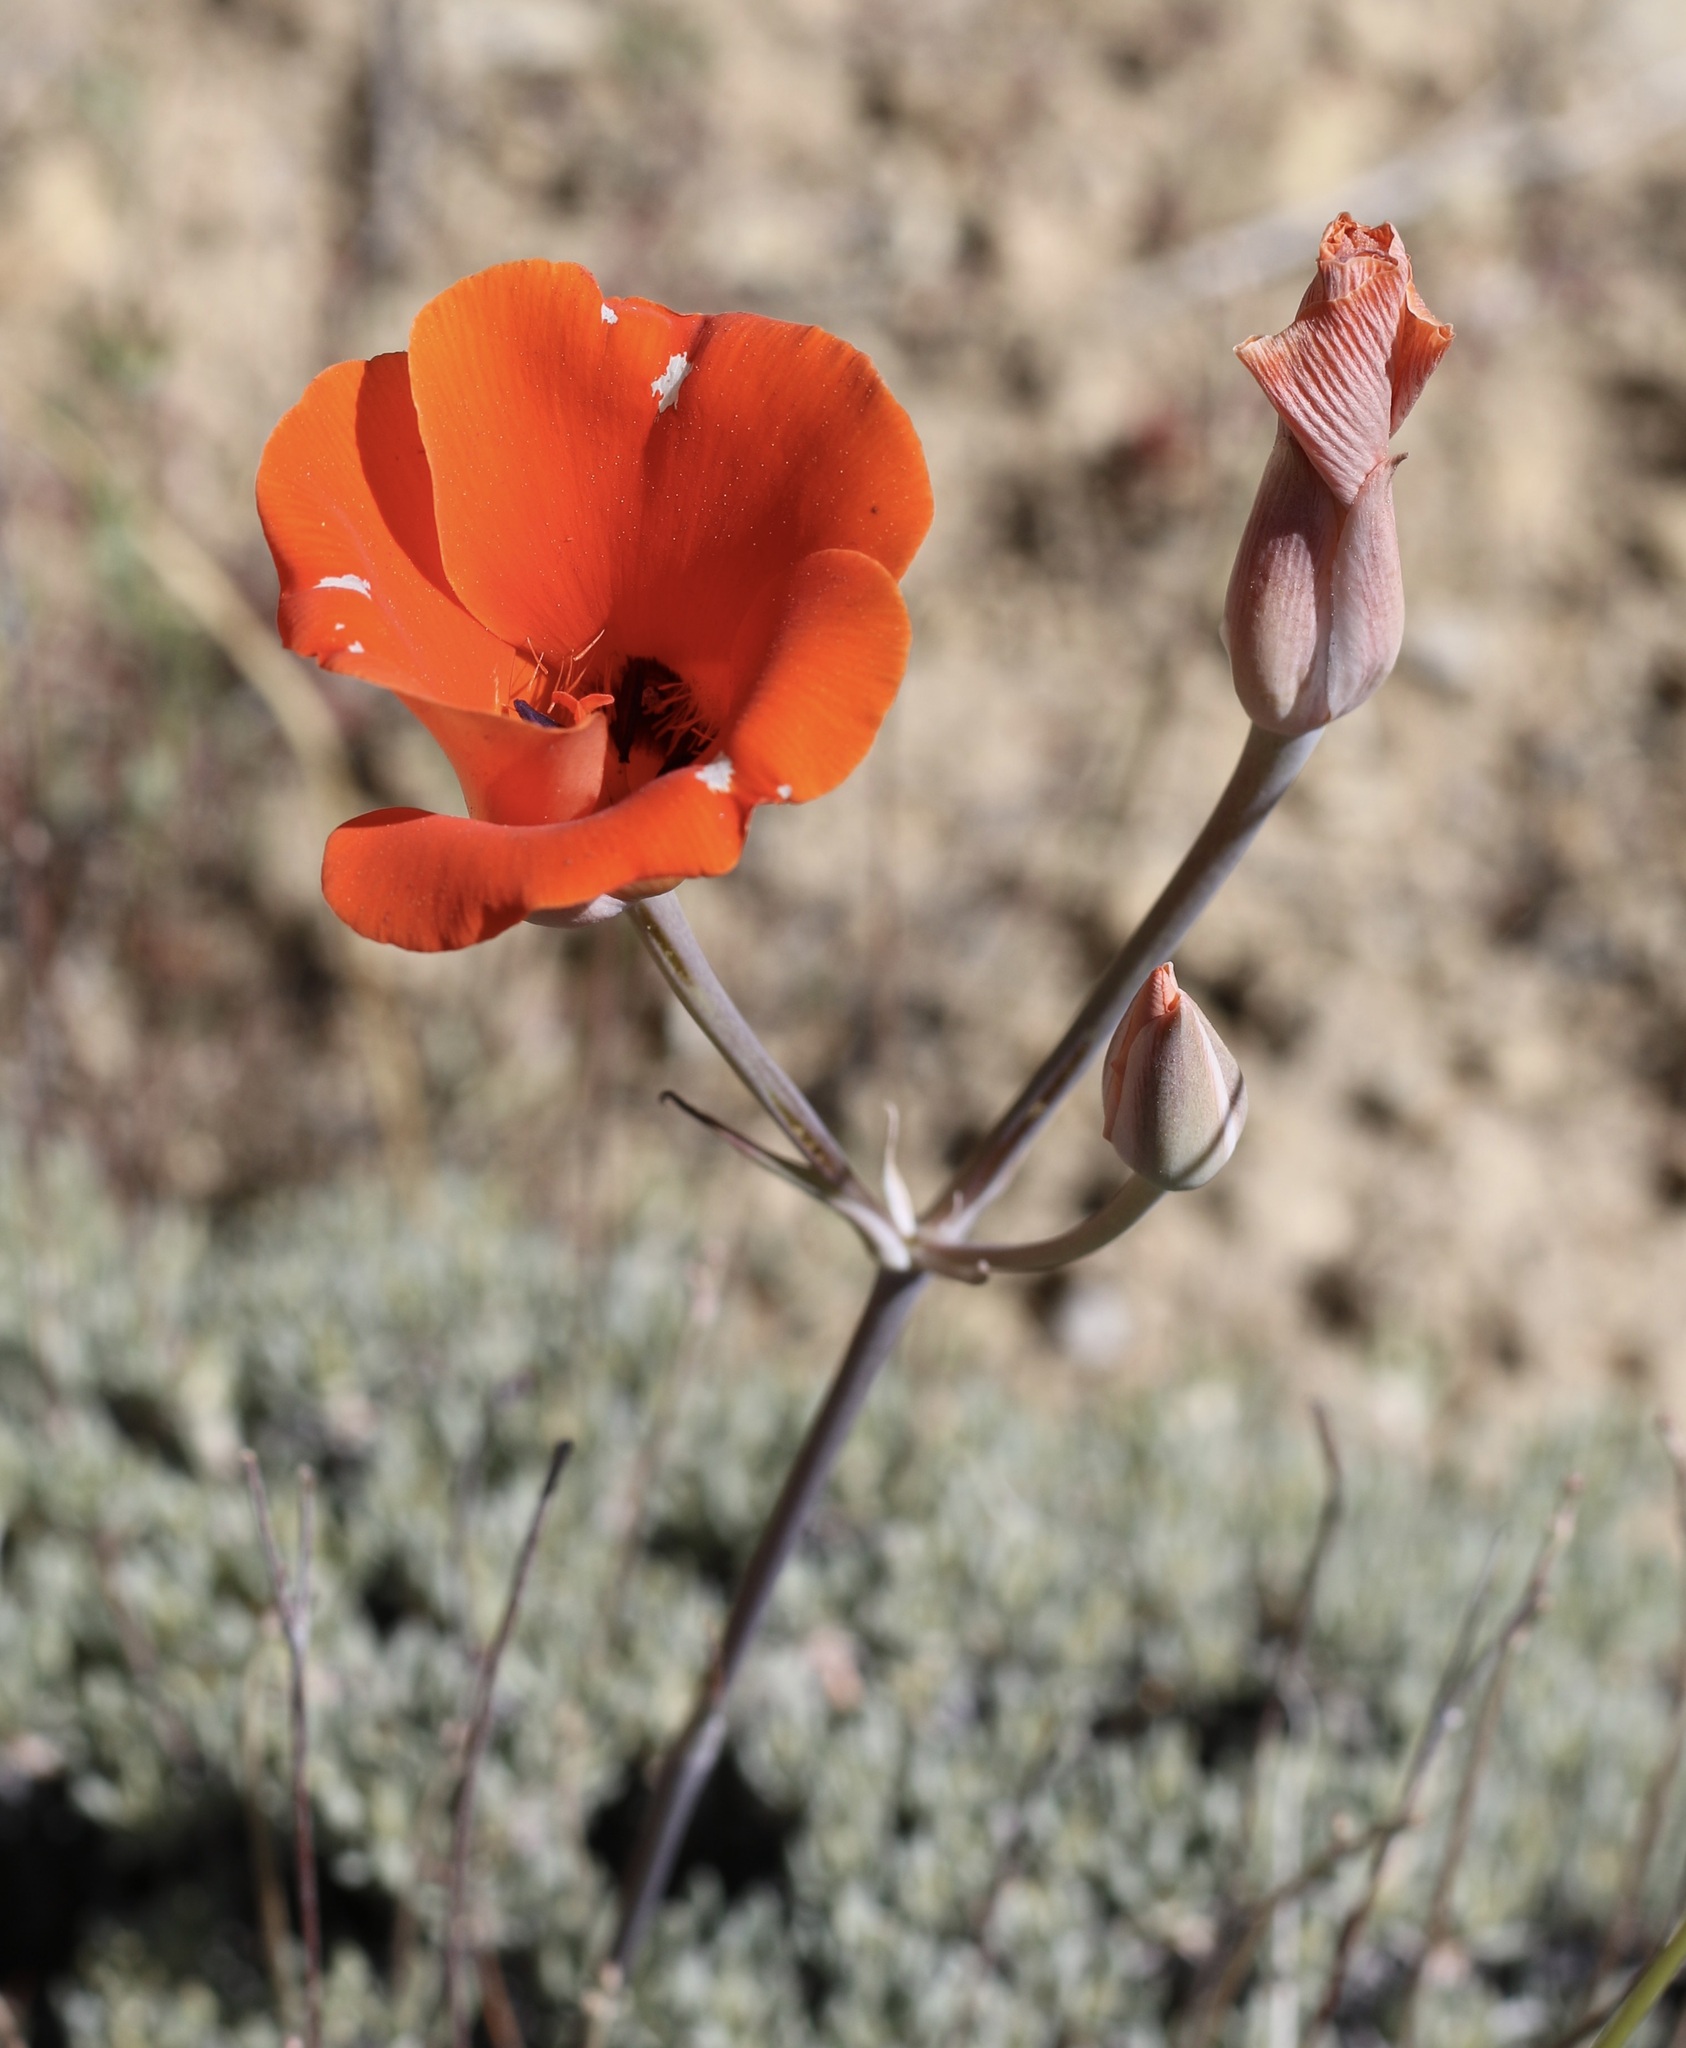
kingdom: Plantae
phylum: Tracheophyta
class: Liliopsida
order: Liliales
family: Liliaceae
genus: Calochortus
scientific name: Calochortus kennedyi
